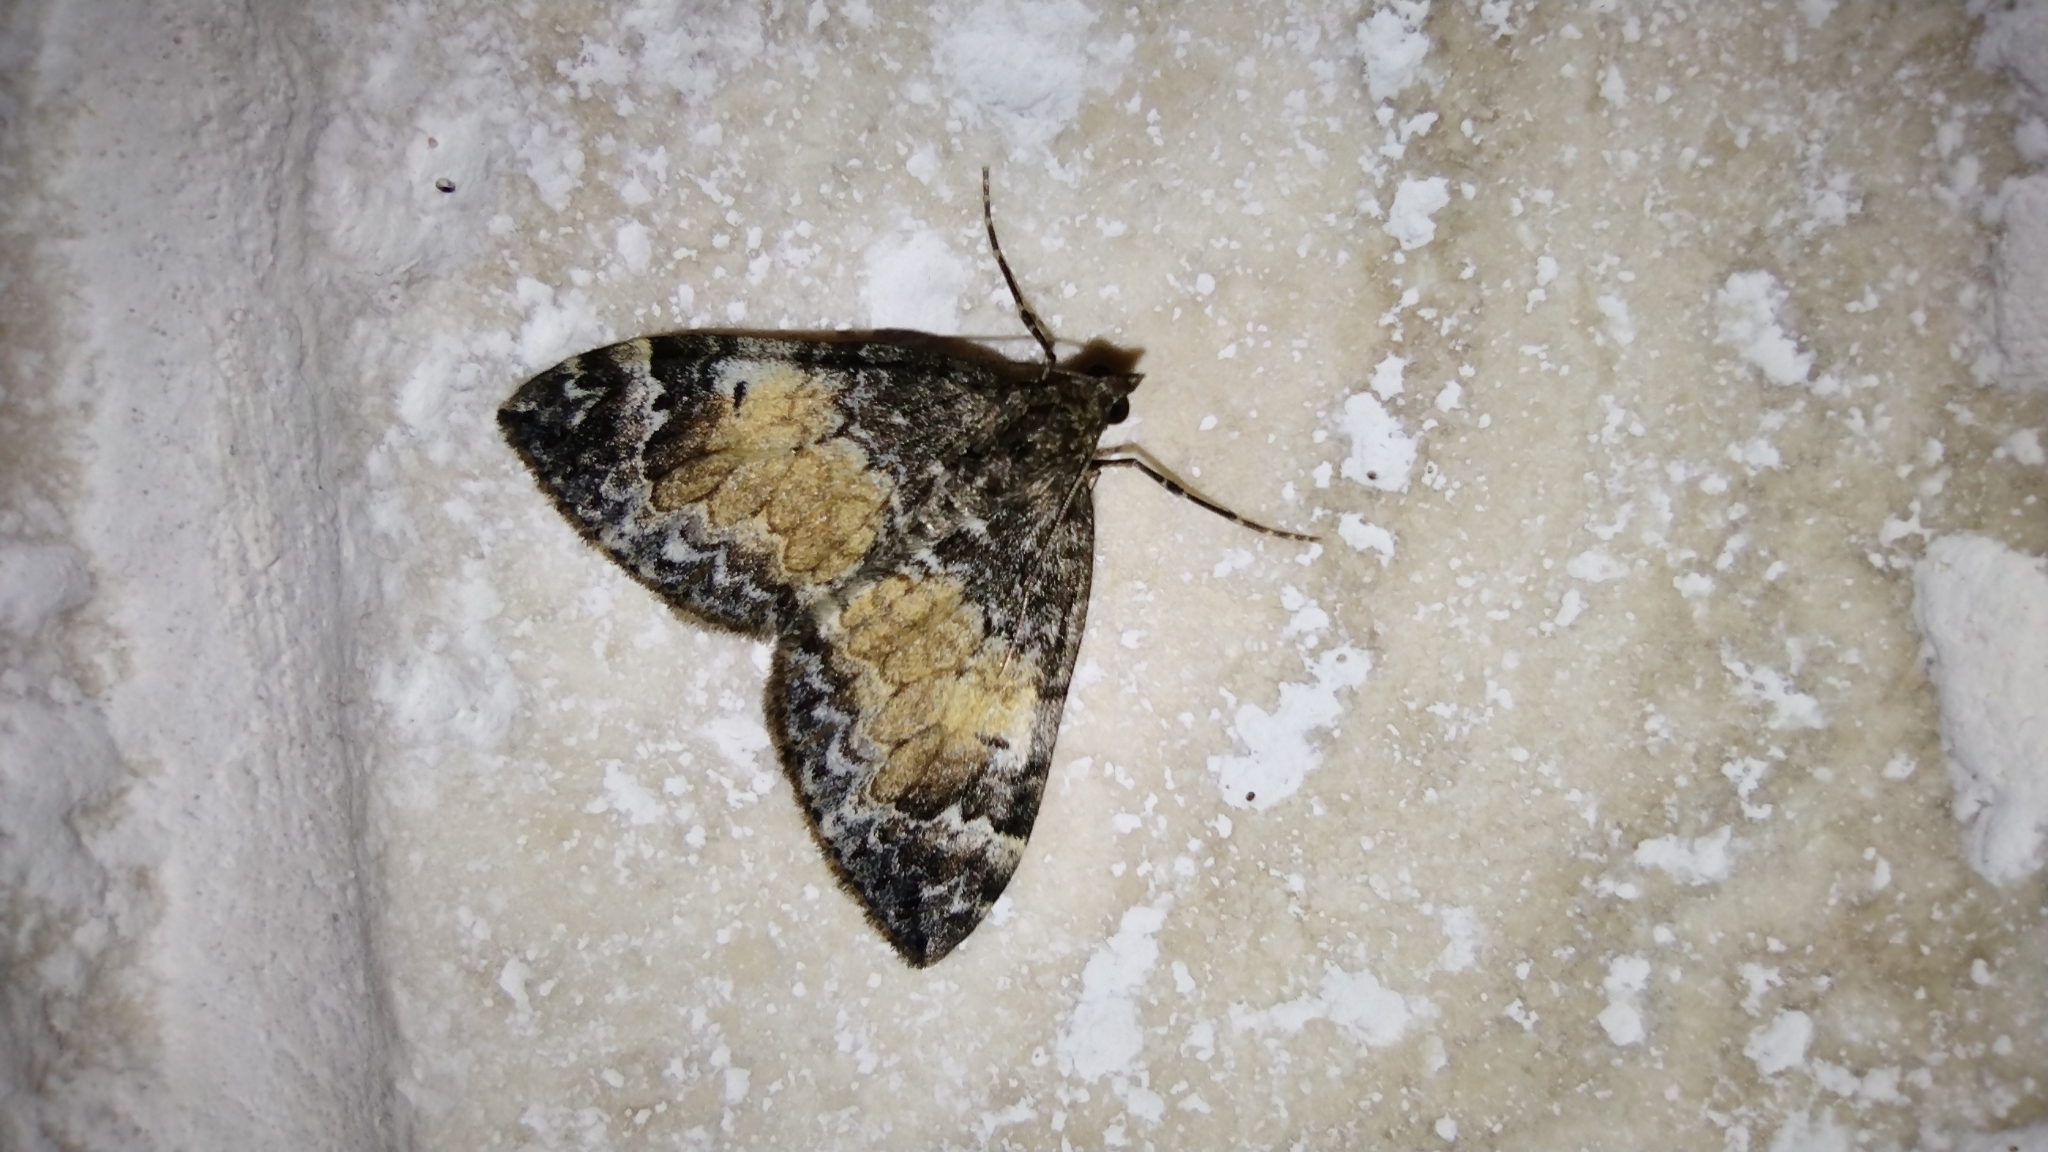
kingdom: Animalia
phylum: Arthropoda
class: Insecta
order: Lepidoptera
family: Geometridae
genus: Dysstroma
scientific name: Dysstroma truncata
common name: Common marbled carpet
